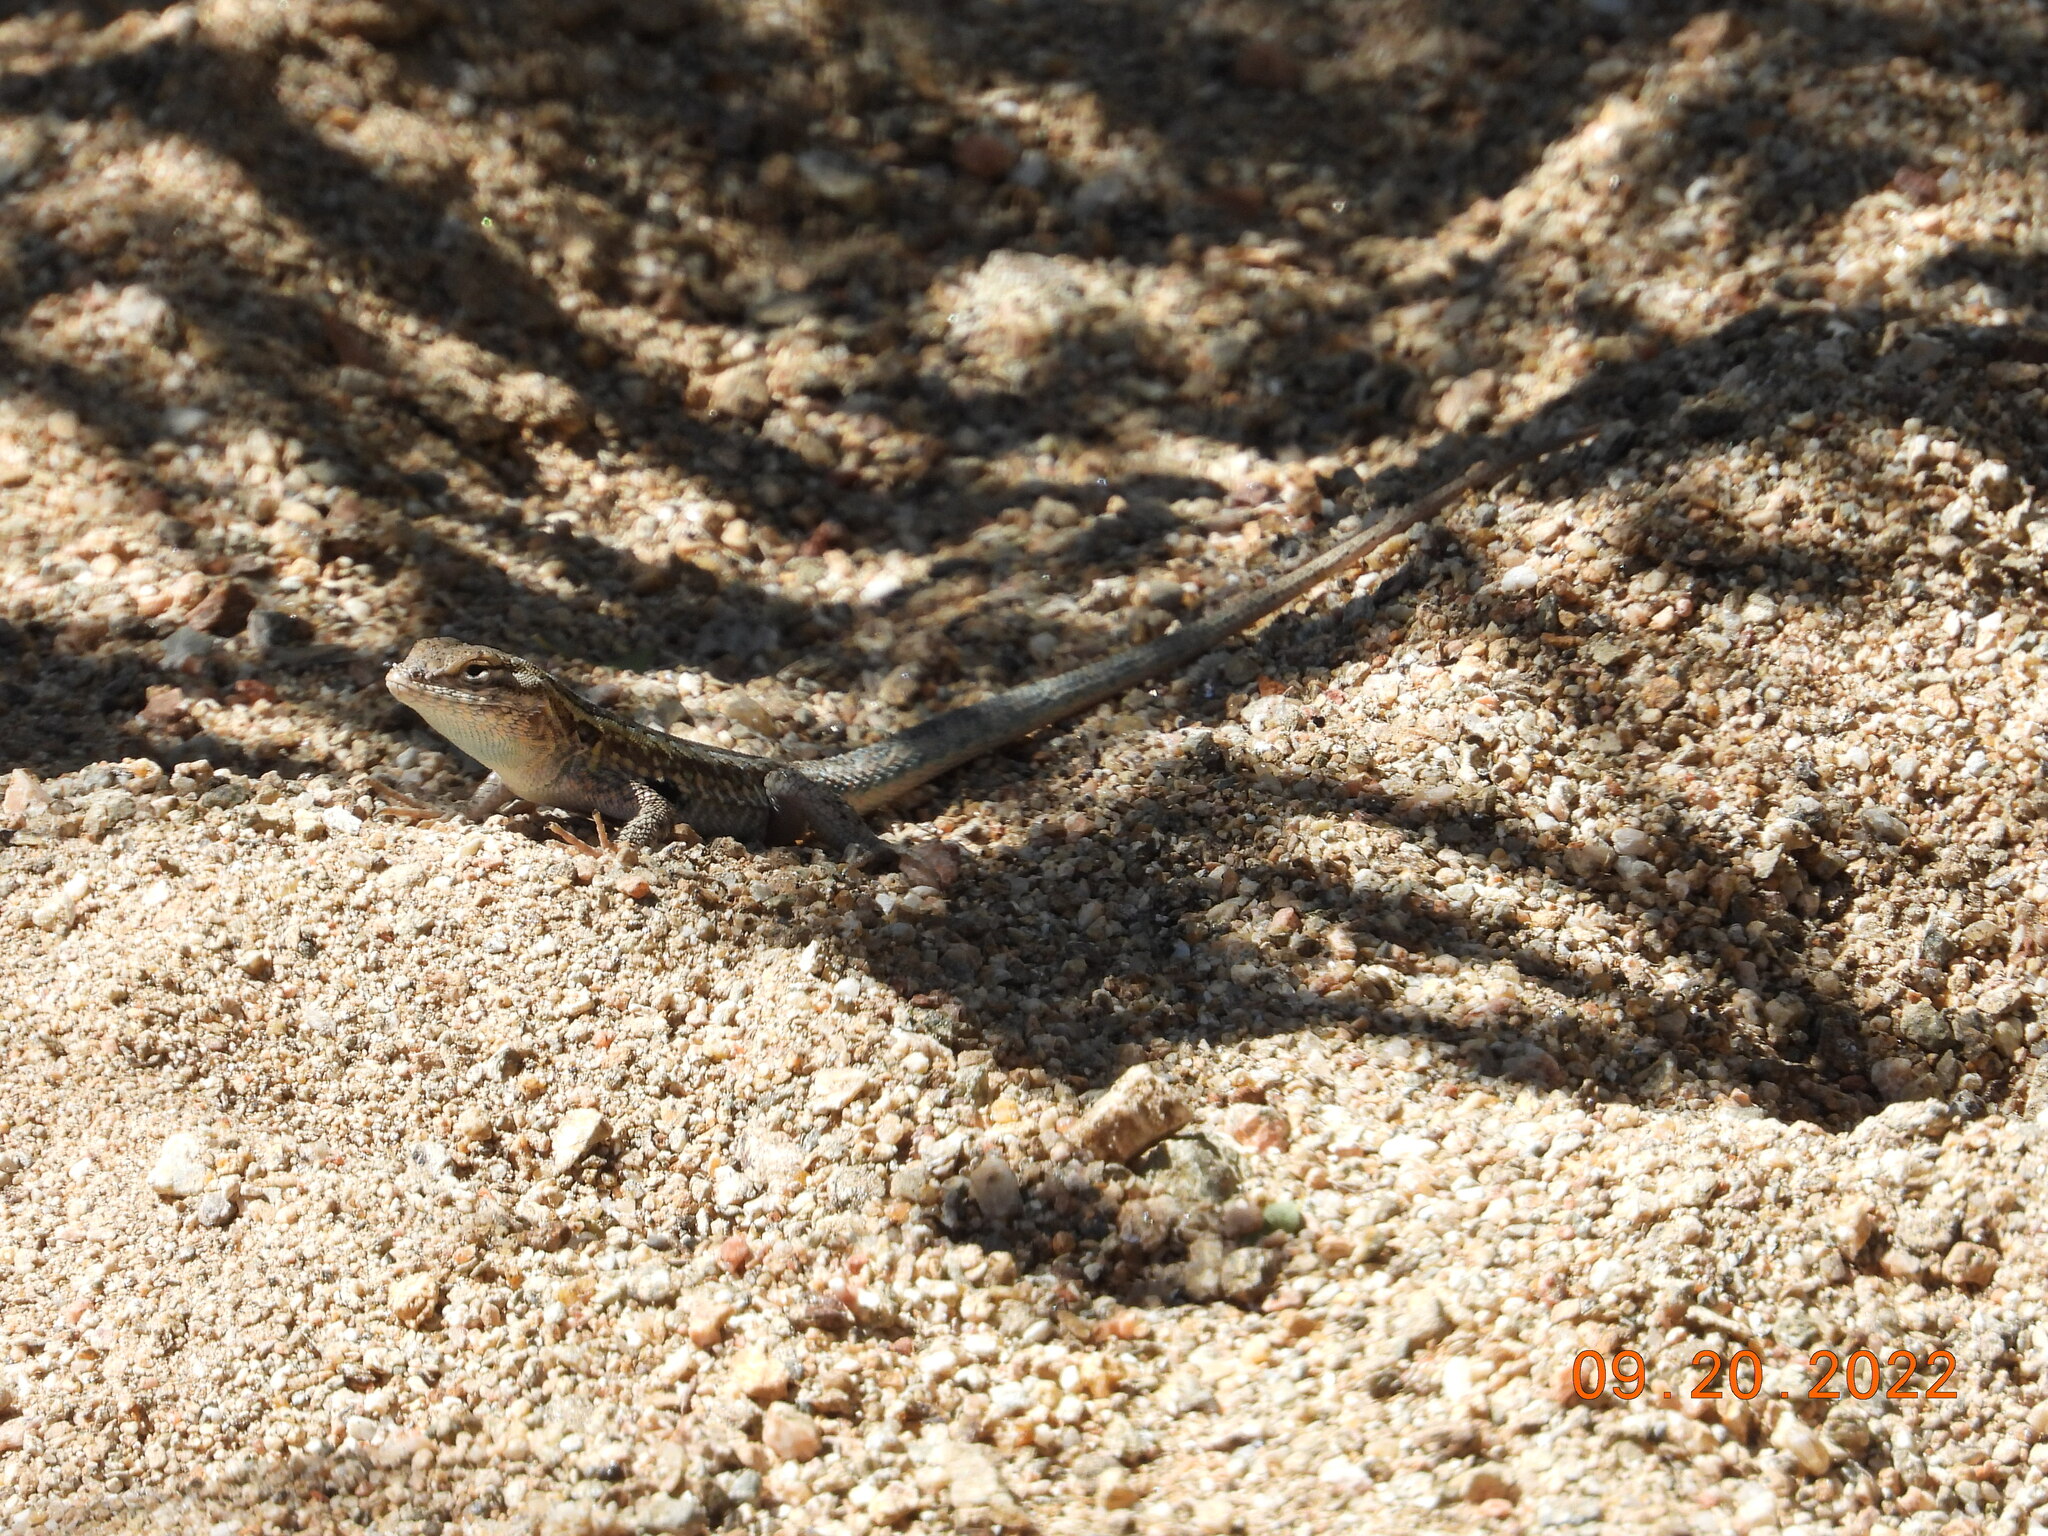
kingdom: Animalia
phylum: Chordata
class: Squamata
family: Phrynosomatidae
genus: Uta
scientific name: Uta stansburiana
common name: Side-blotched lizard
